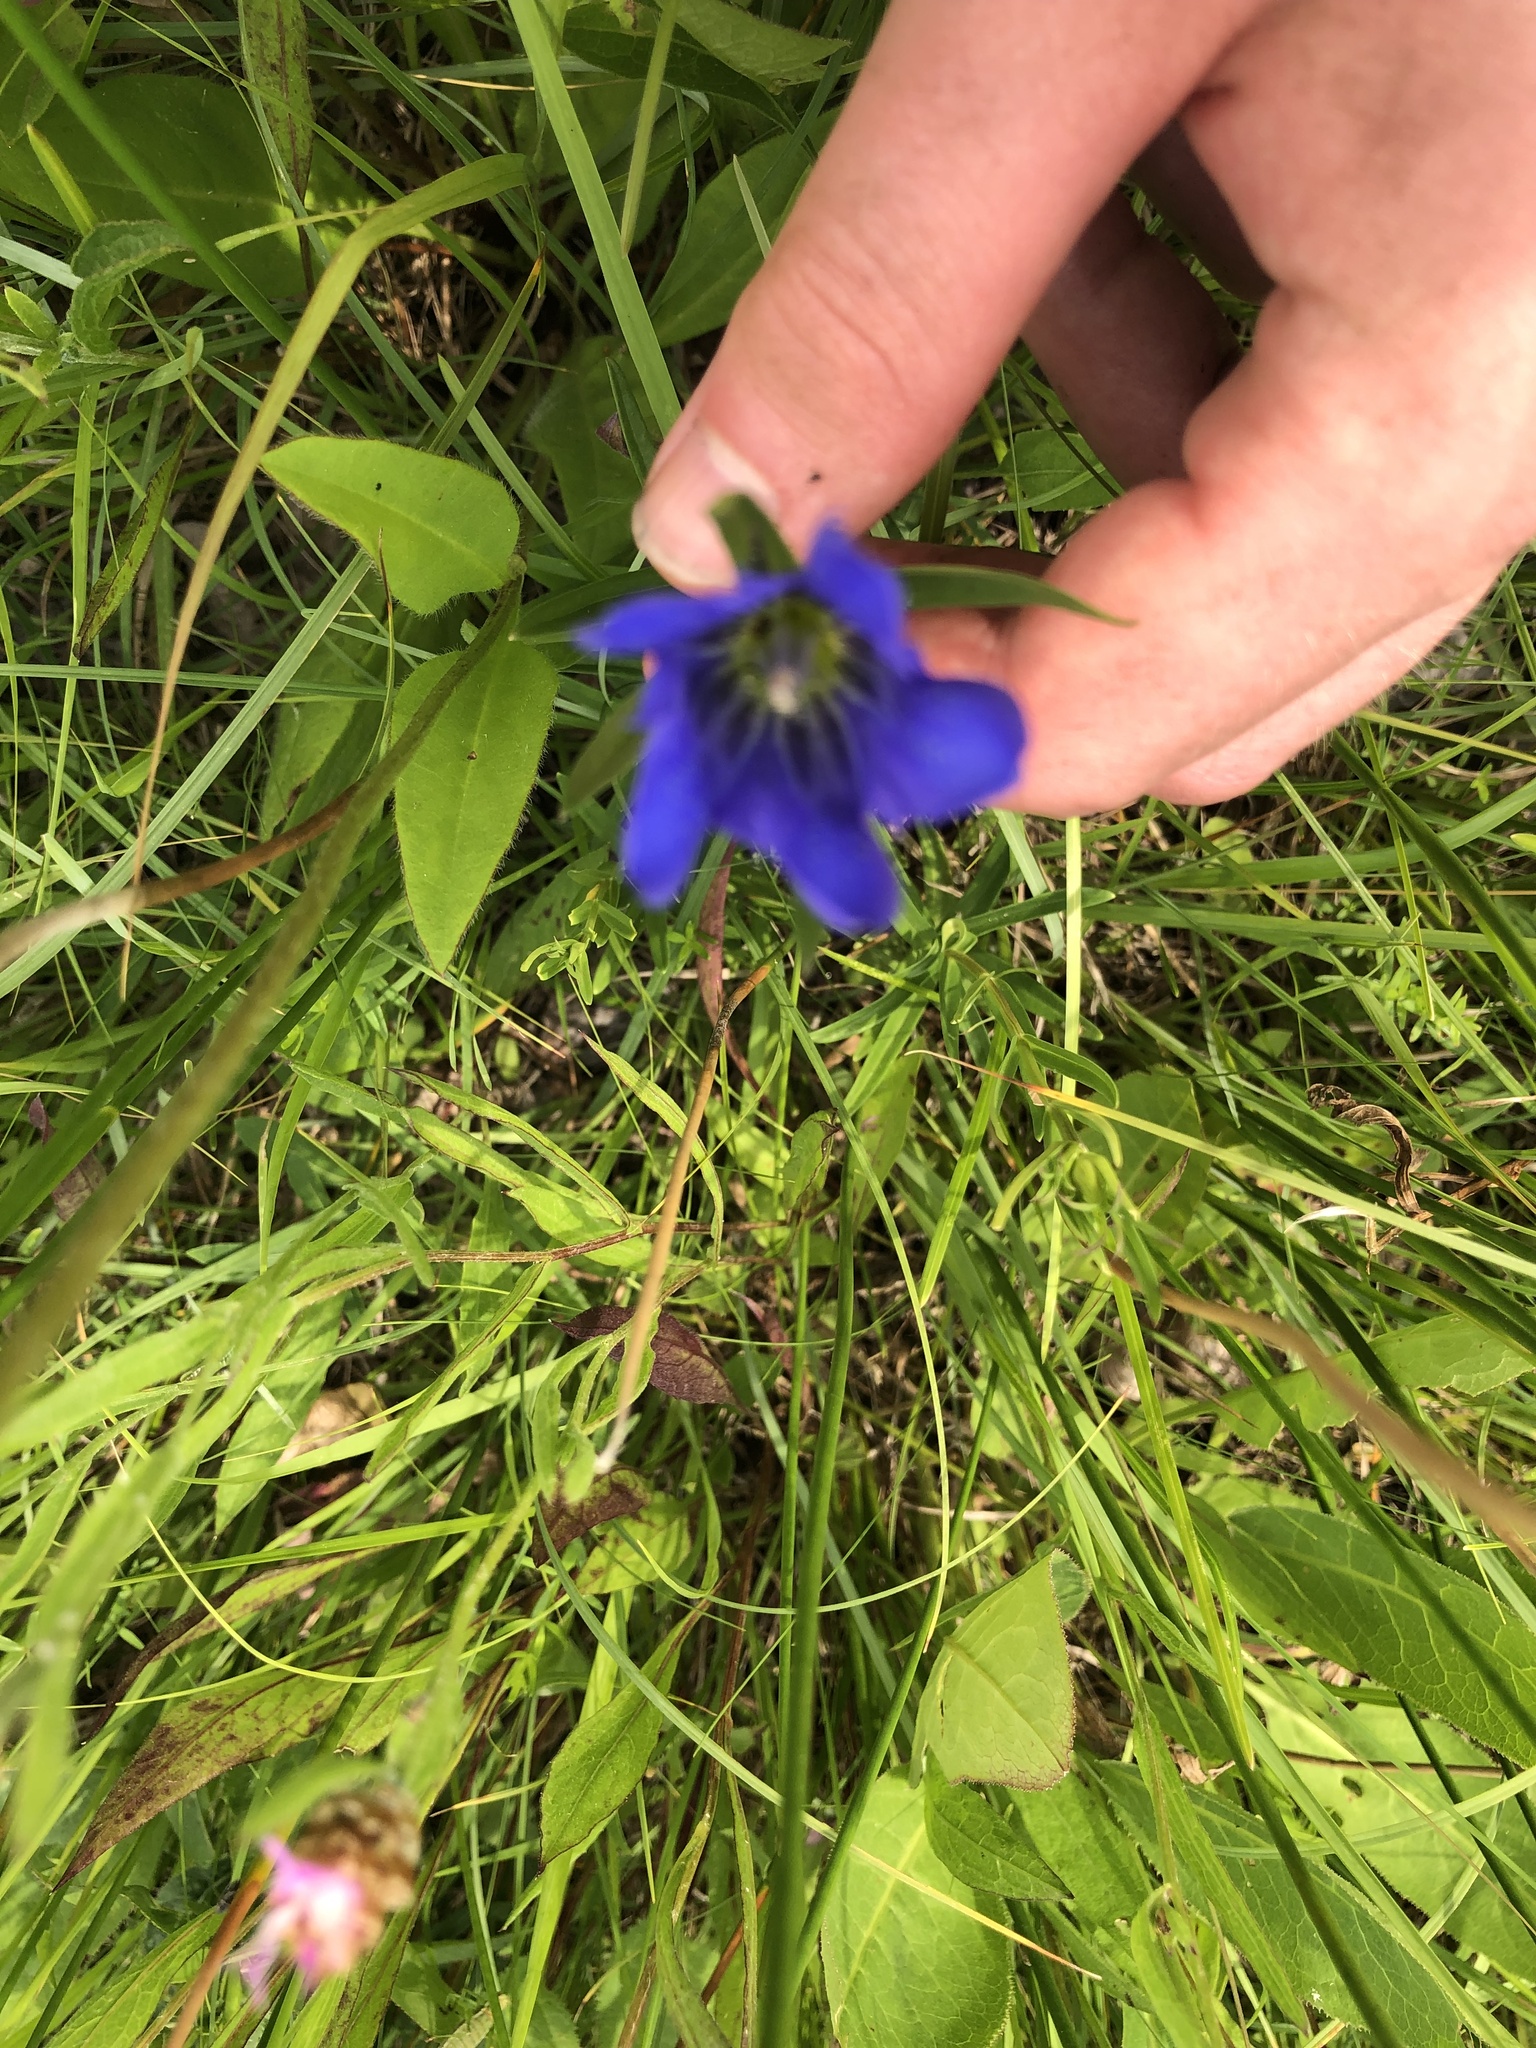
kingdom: Plantae
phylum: Tracheophyta
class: Magnoliopsida
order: Gentianales
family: Gentianaceae
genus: Gentiana
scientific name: Gentiana pneumonanthe
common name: Marsh gentian
